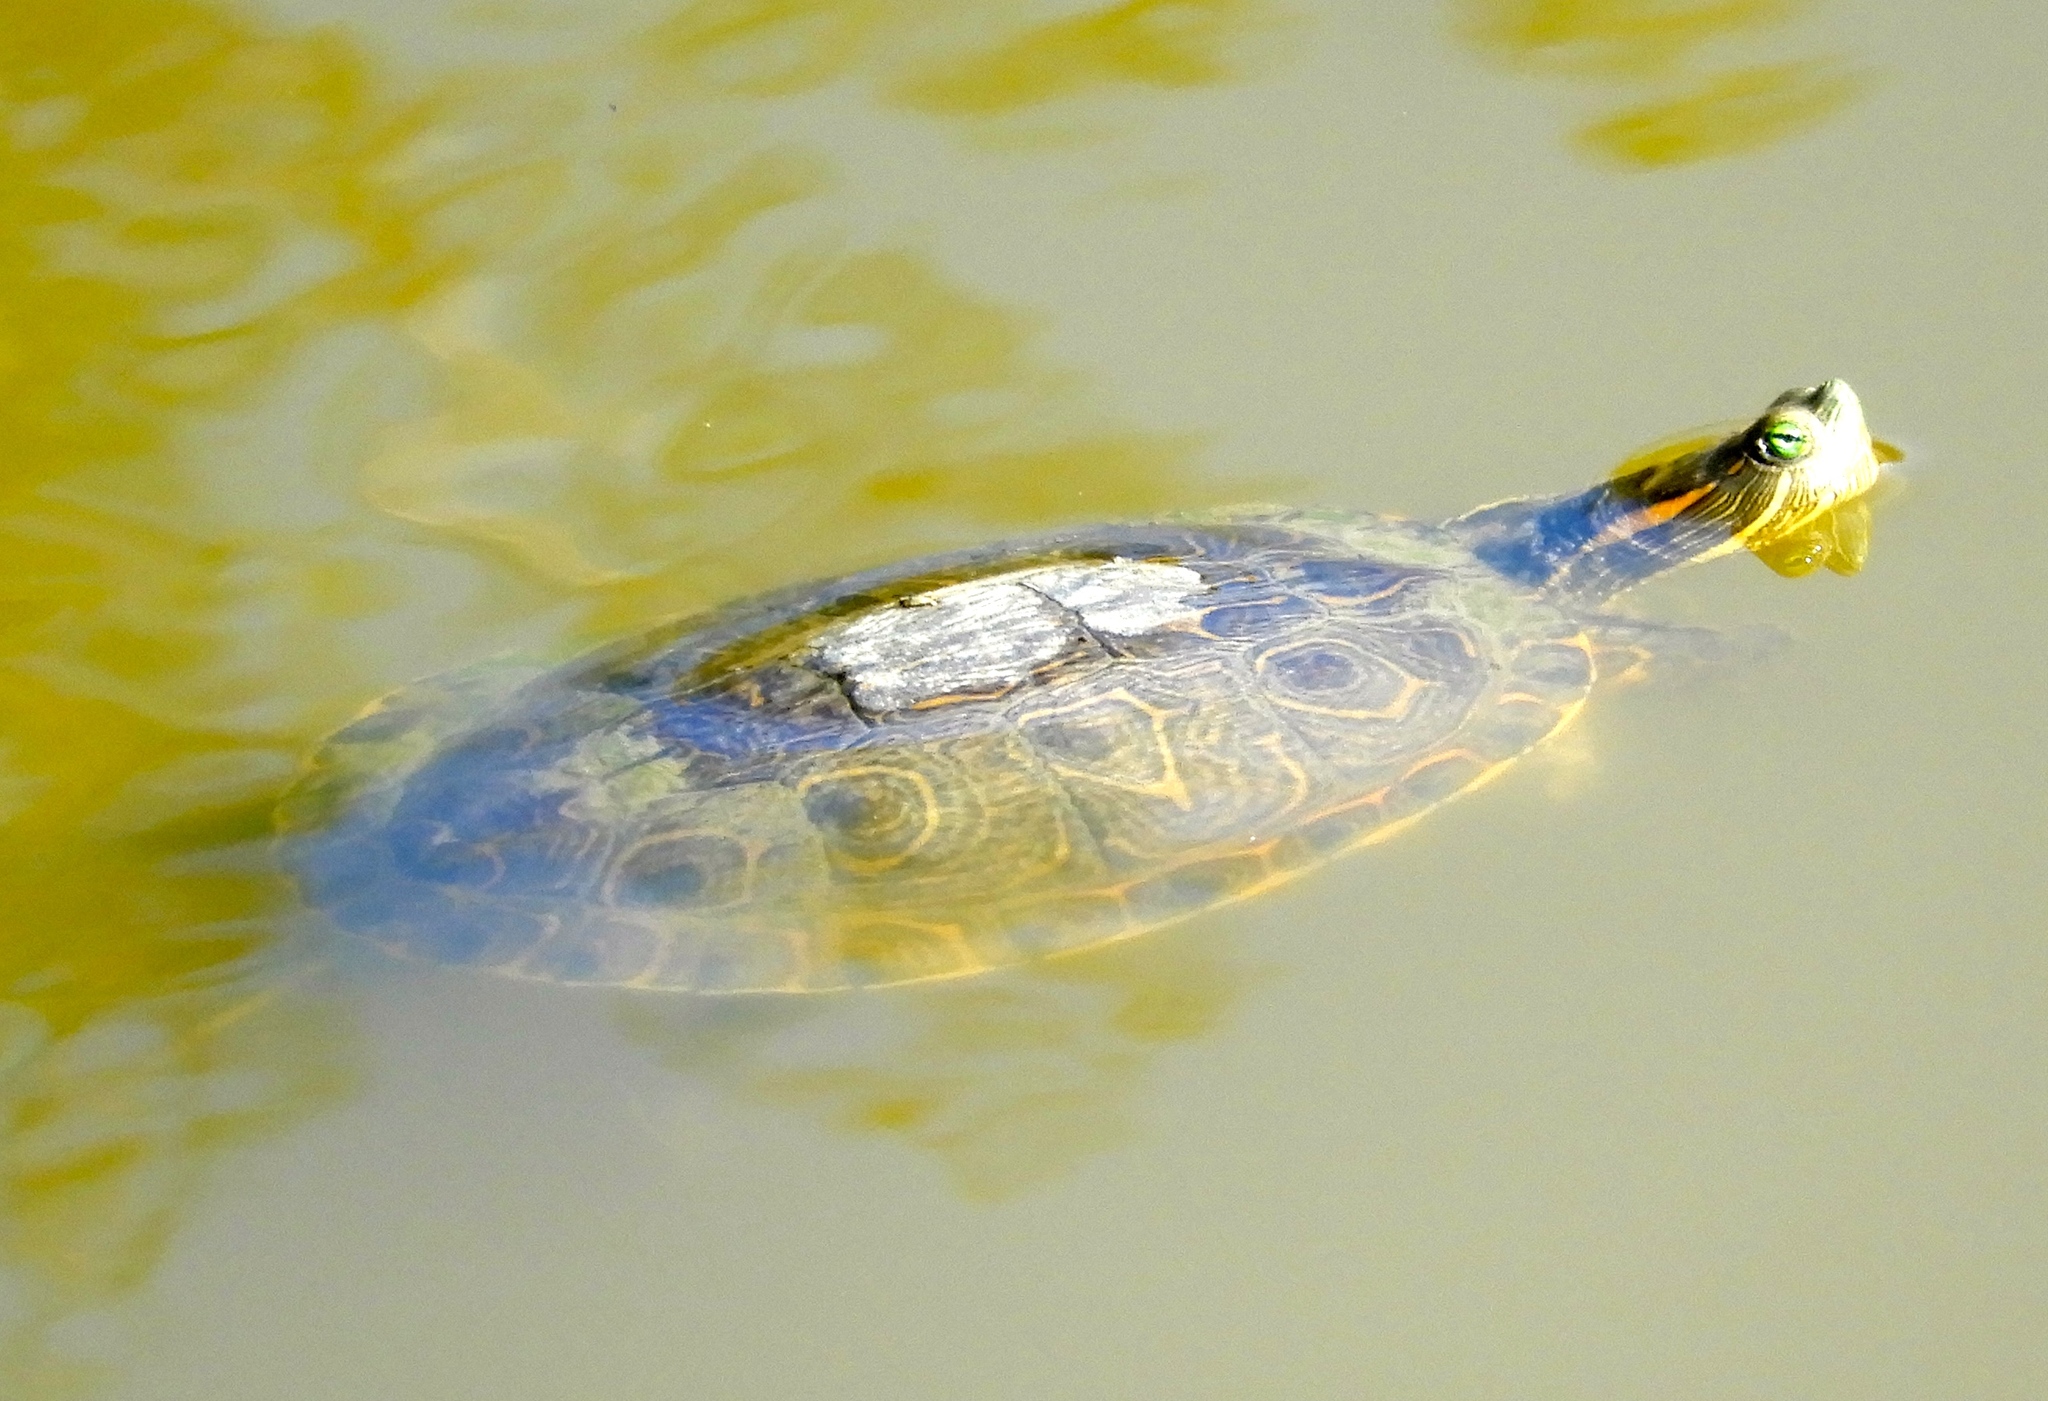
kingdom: Animalia
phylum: Chordata
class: Testudines
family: Emydidae
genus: Trachemys
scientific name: Trachemys ornata
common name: Ornate slider
